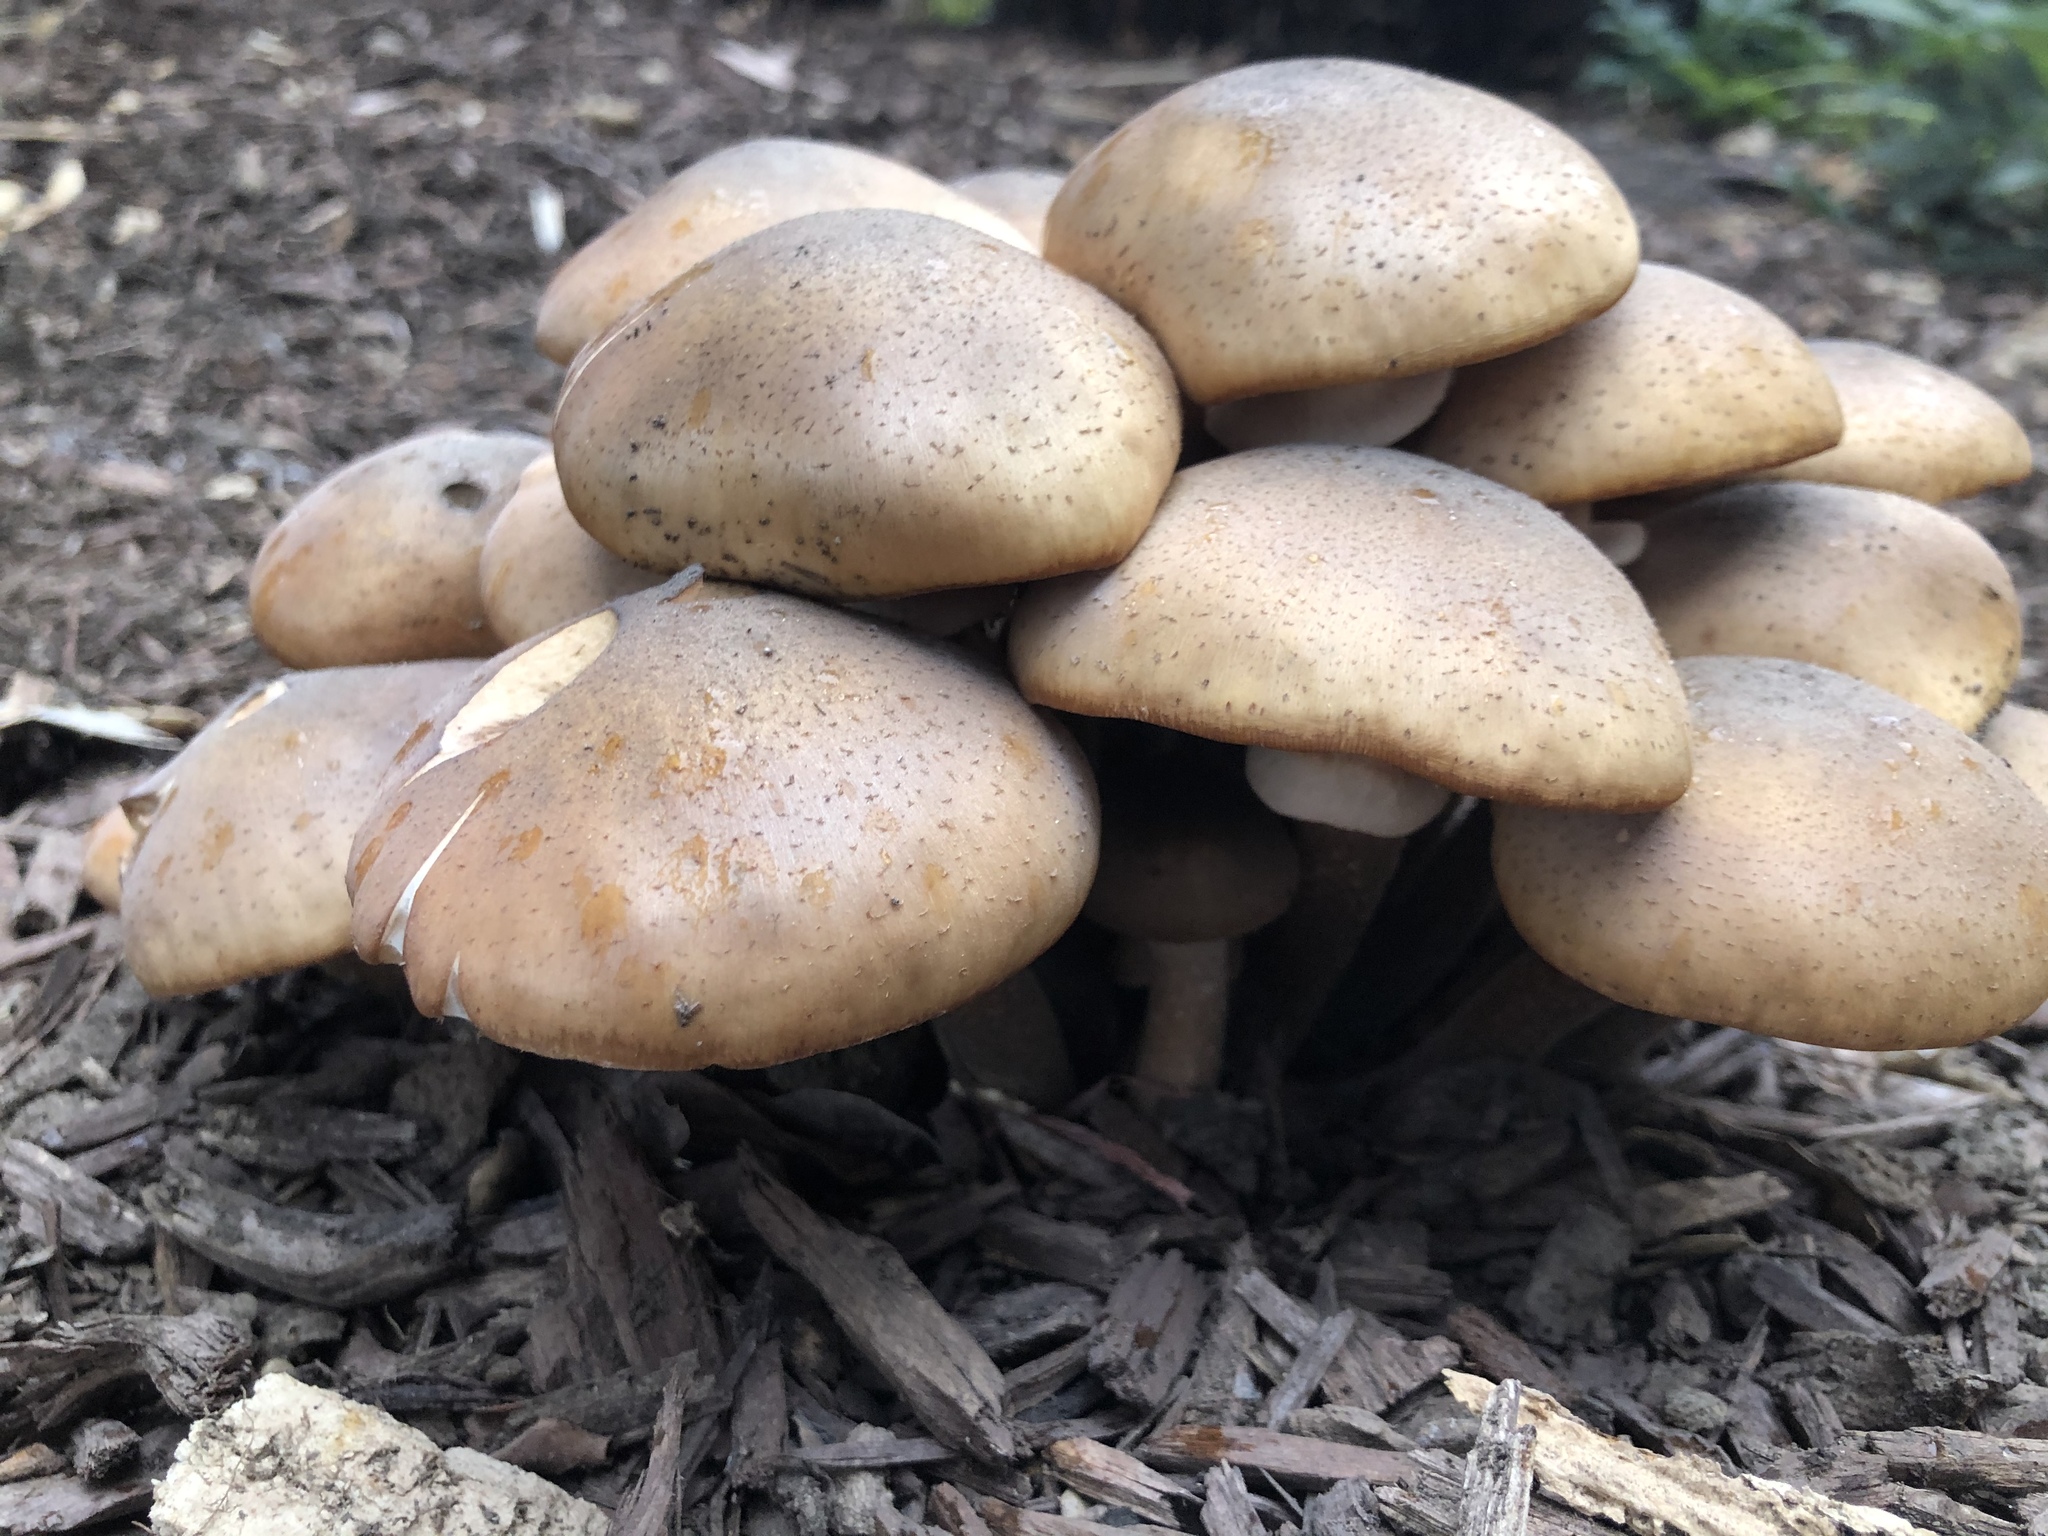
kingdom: Fungi
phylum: Basidiomycota
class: Agaricomycetes
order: Agaricales
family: Physalacriaceae
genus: Armillaria
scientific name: Armillaria mellea
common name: Honey fungus
